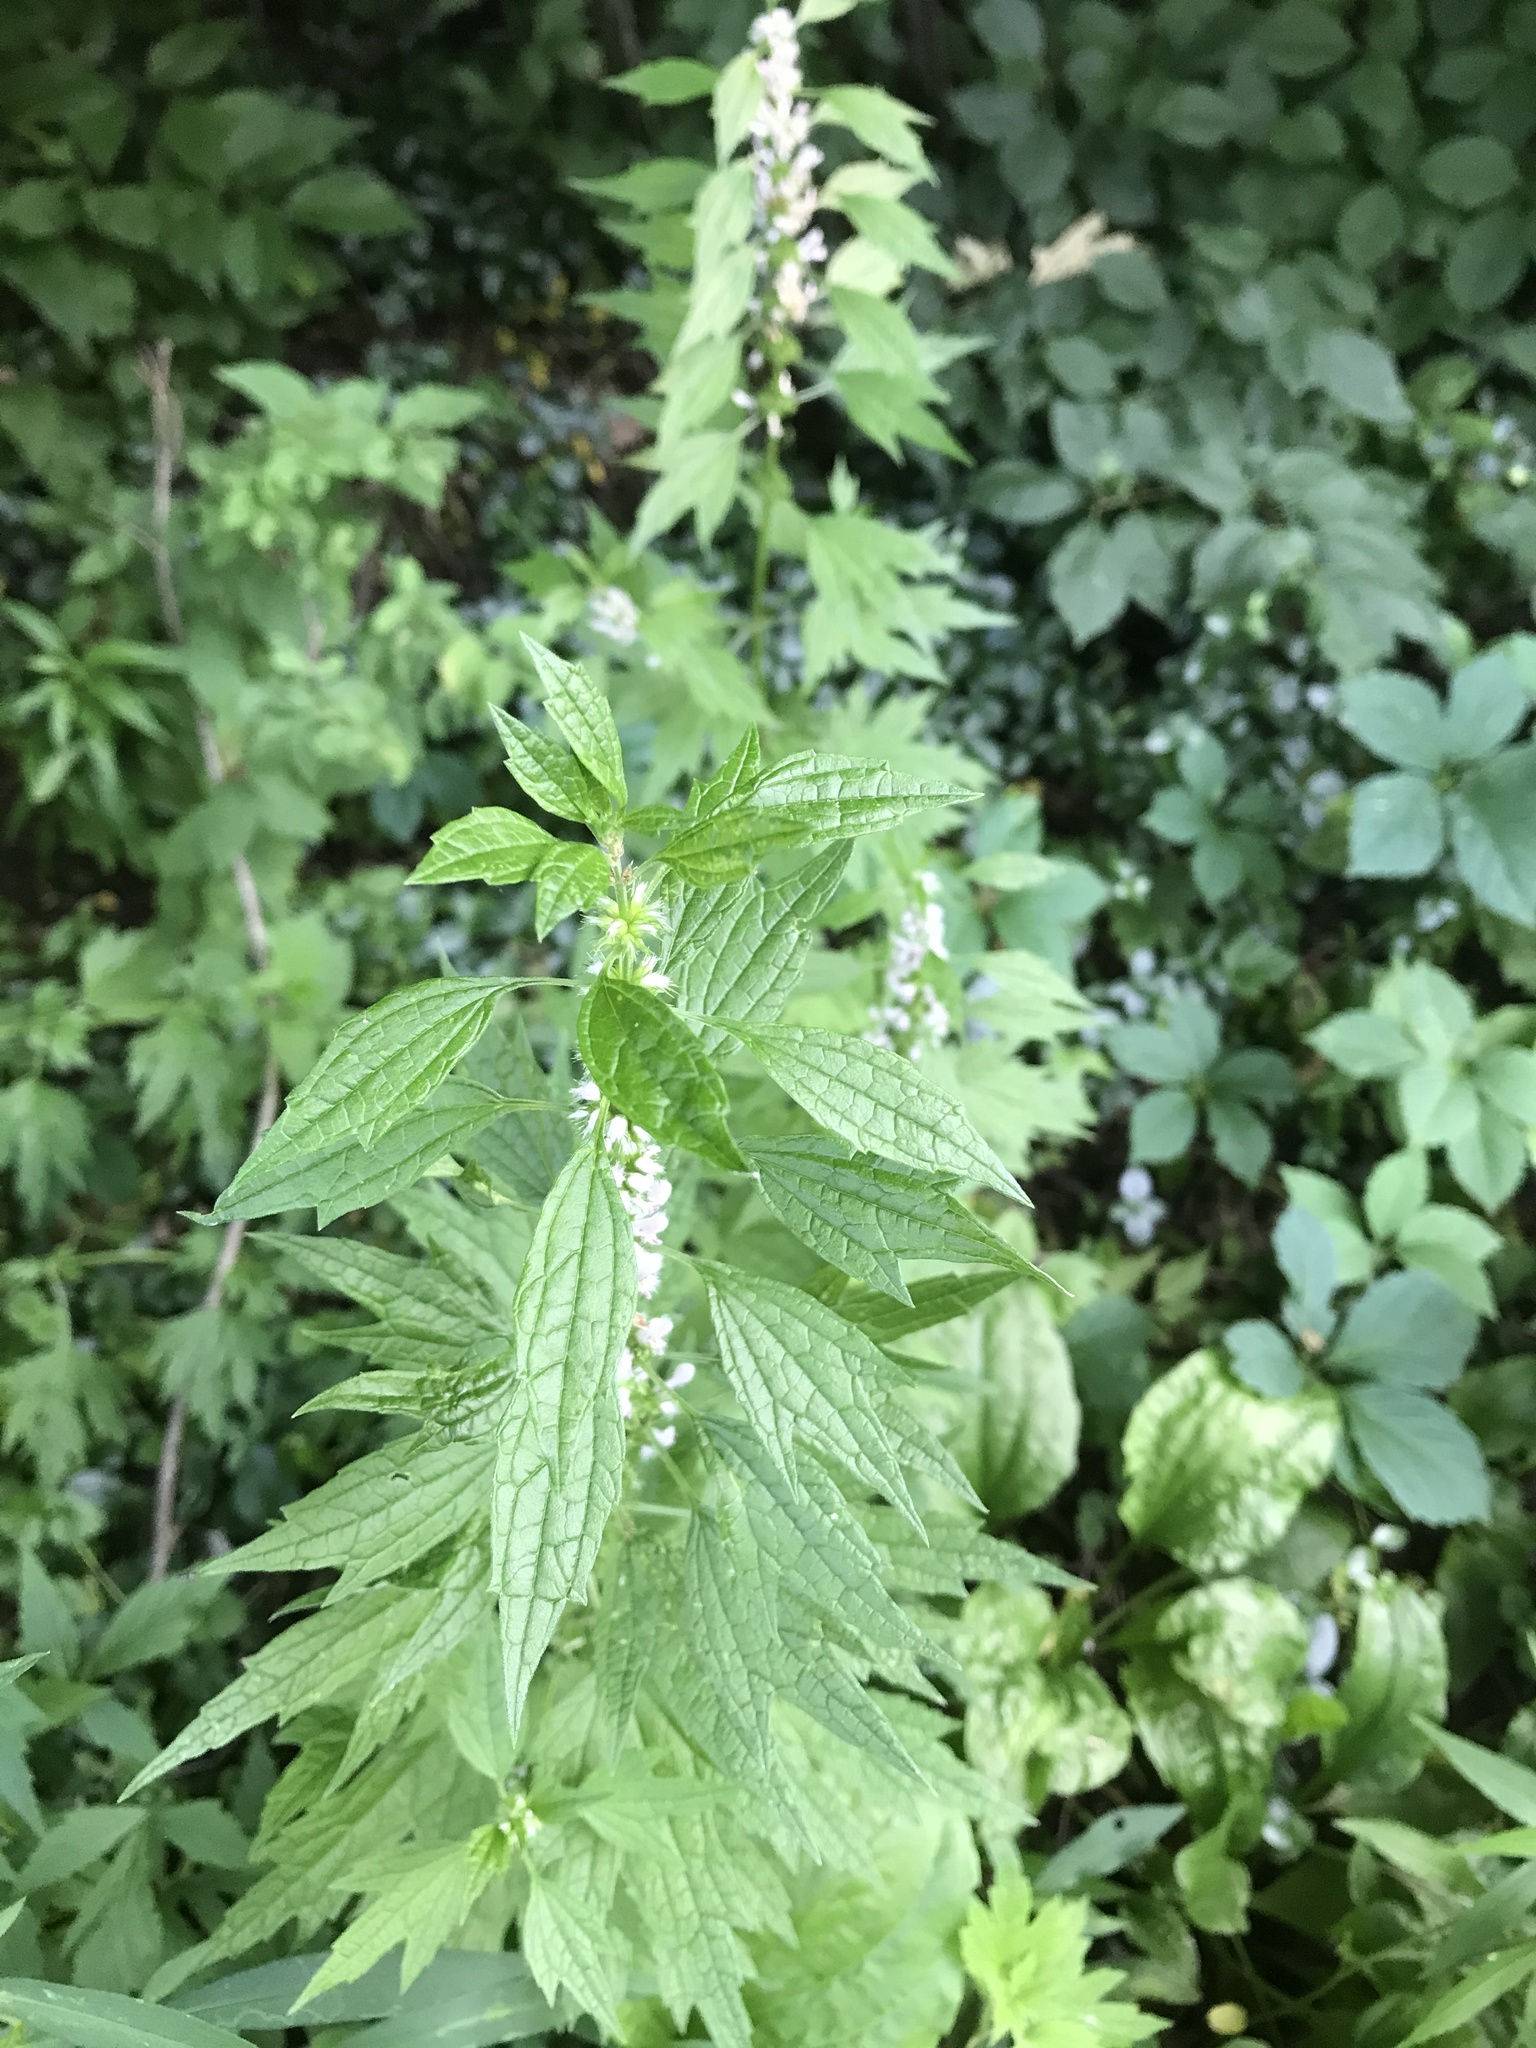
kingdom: Plantae
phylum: Tracheophyta
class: Magnoliopsida
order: Lamiales
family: Lamiaceae
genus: Leonurus
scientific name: Leonurus cardiaca
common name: Motherwort
